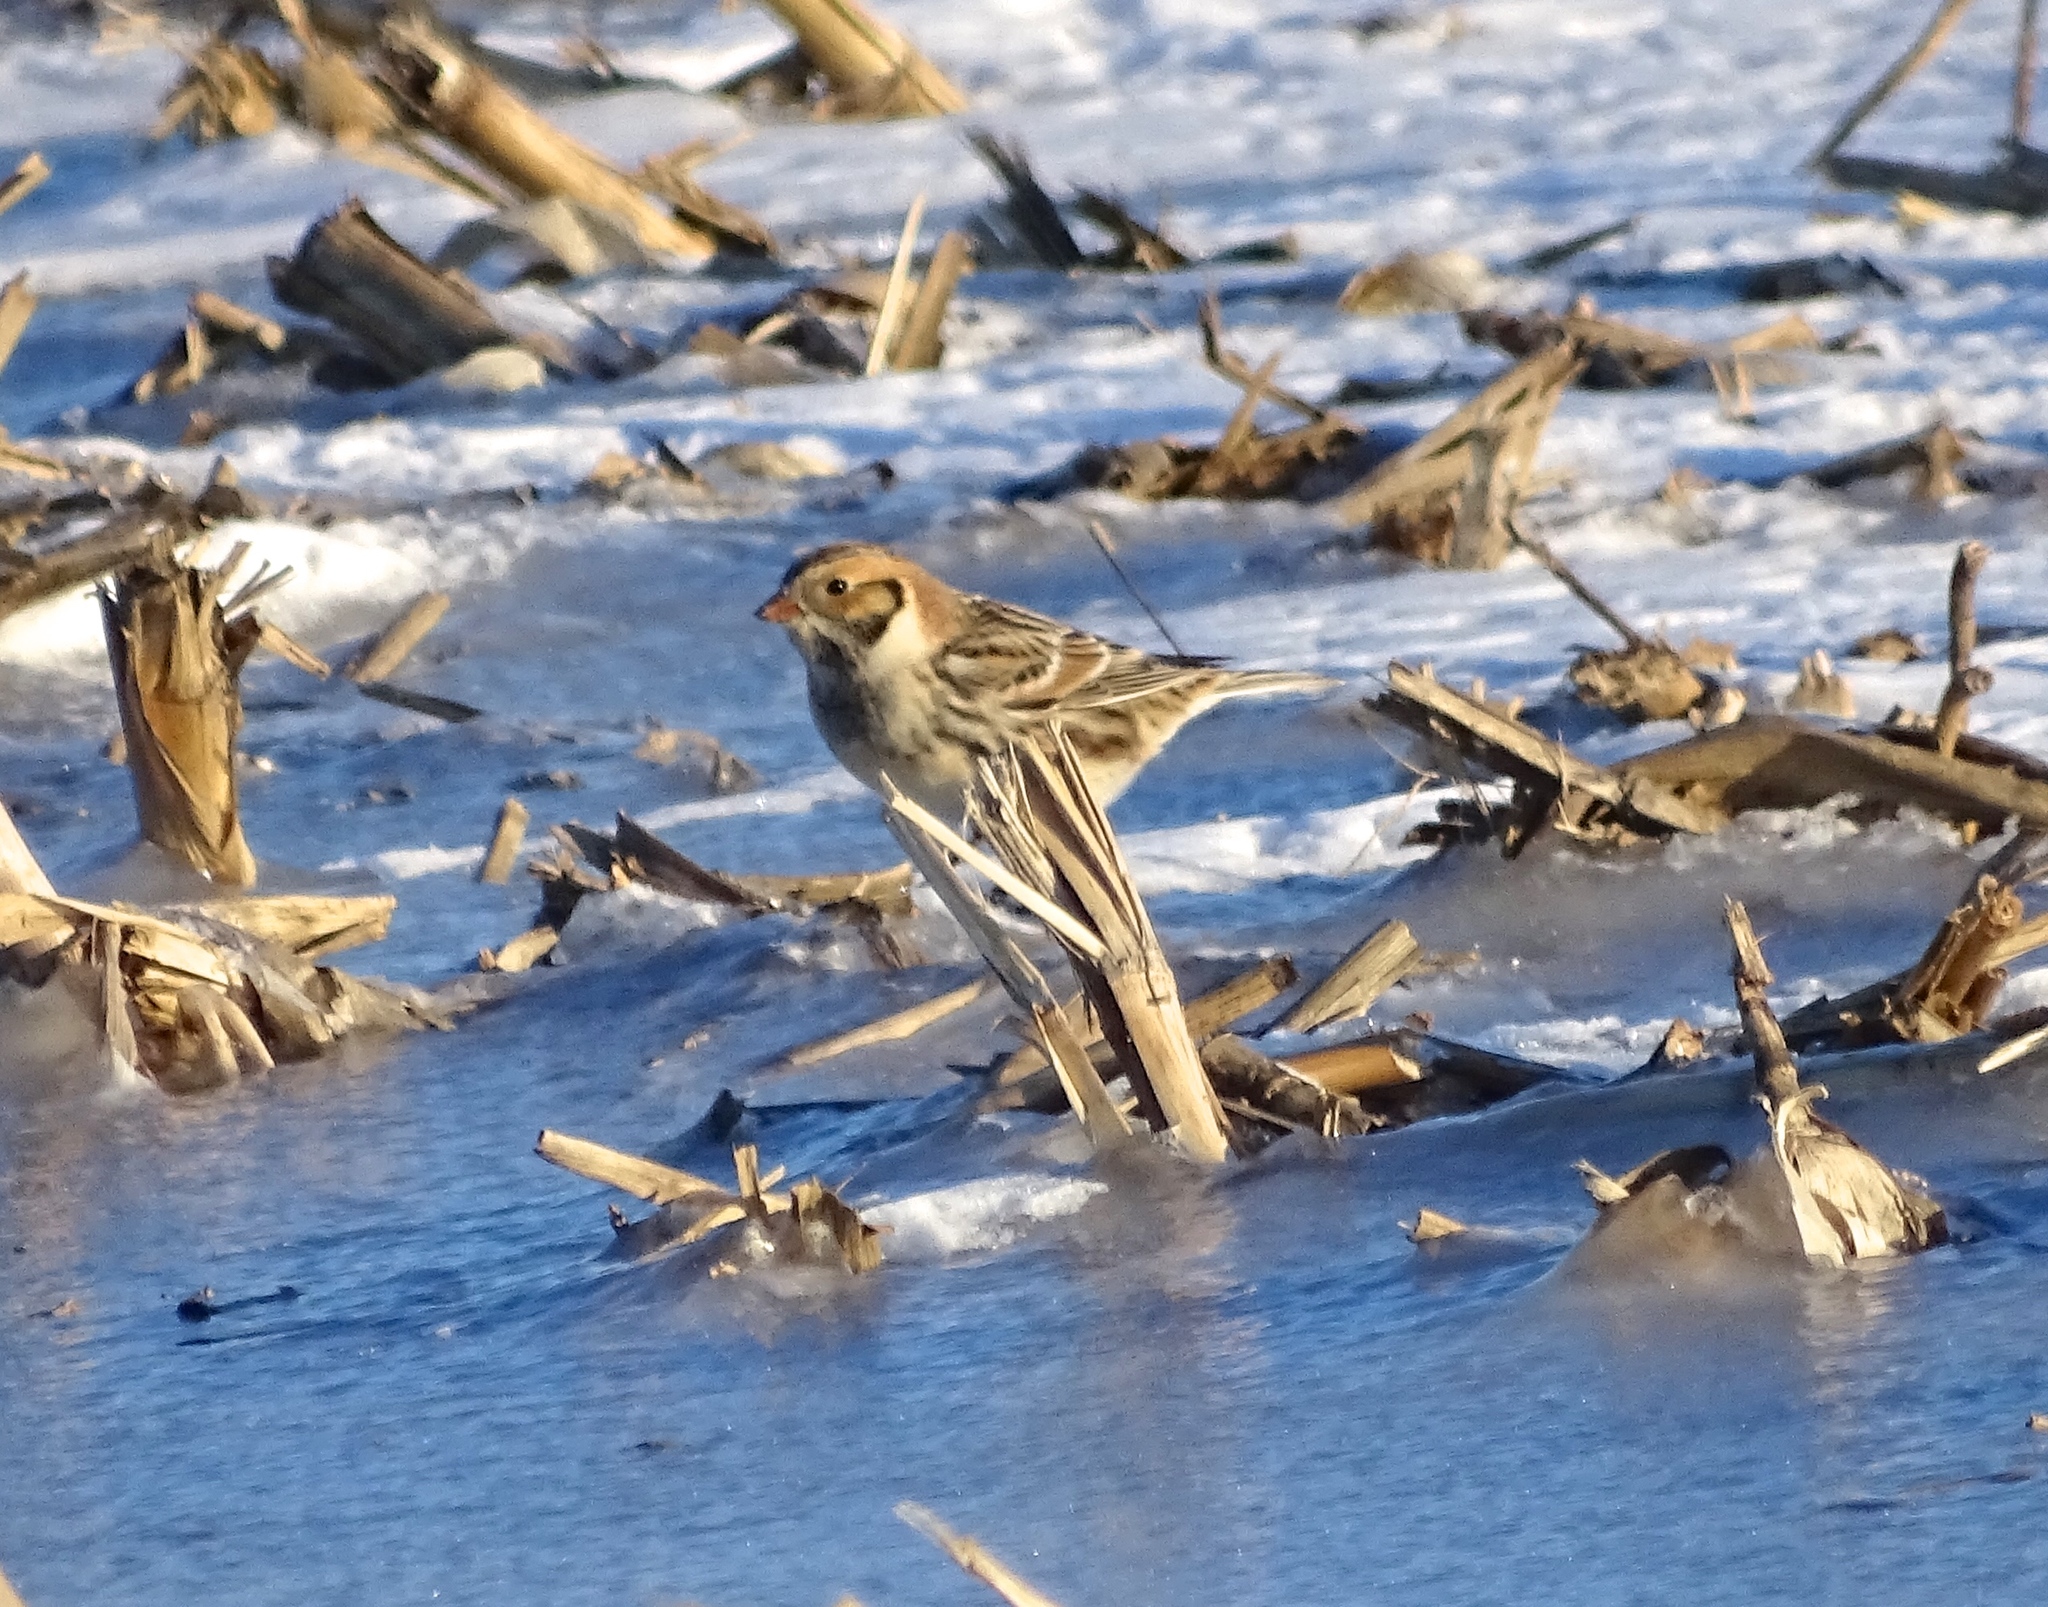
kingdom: Animalia
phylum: Chordata
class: Aves
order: Passeriformes
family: Calcariidae
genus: Calcarius
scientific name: Calcarius lapponicus
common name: Lapland longspur
